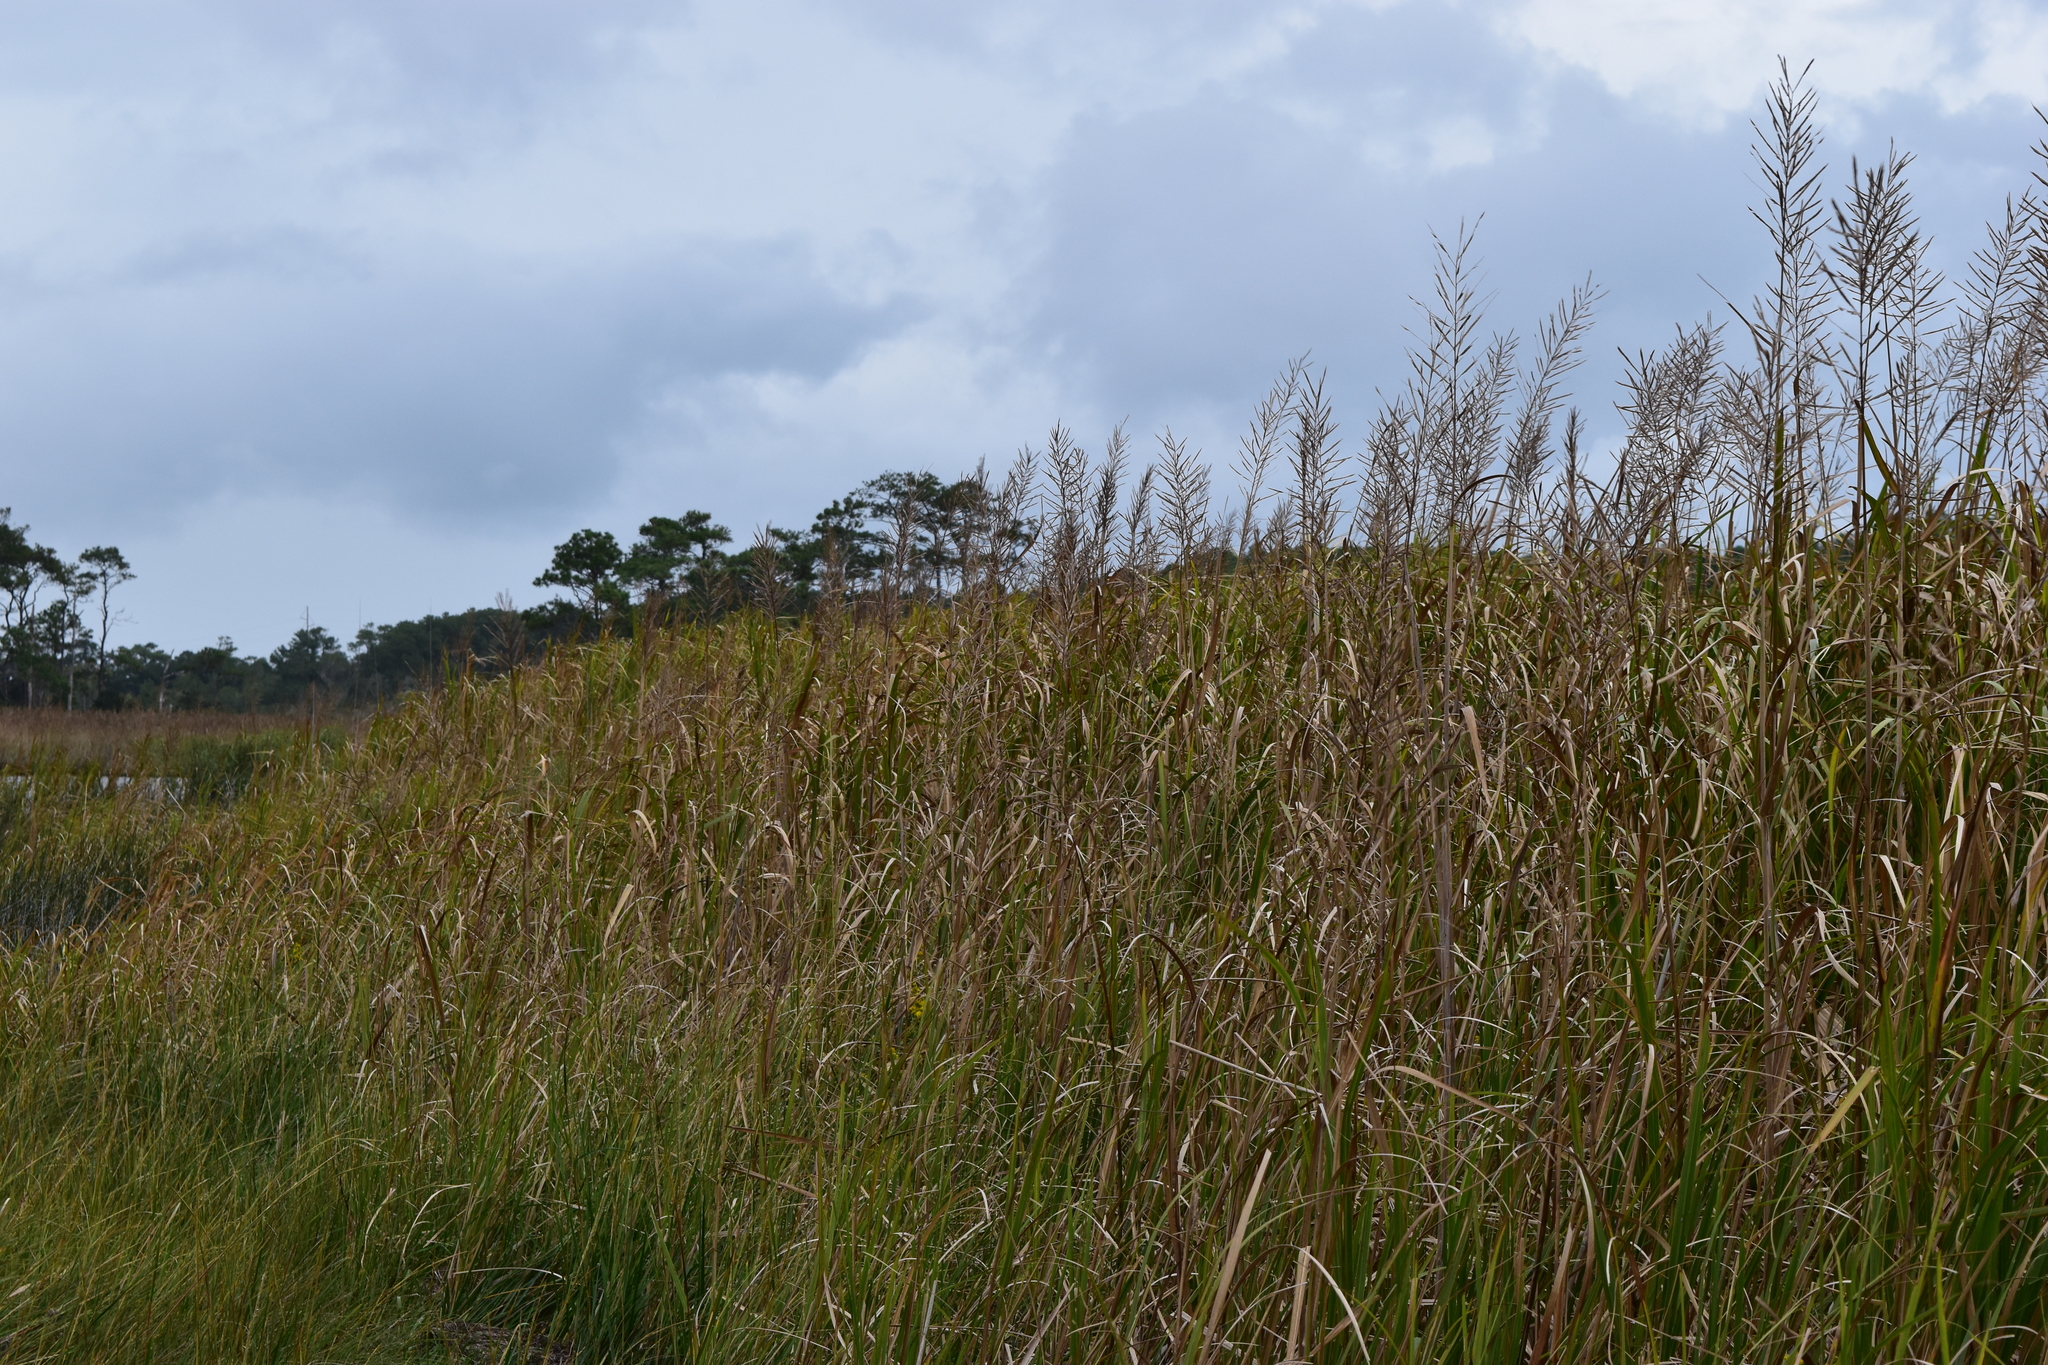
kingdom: Plantae
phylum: Tracheophyta
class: Liliopsida
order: Poales
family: Poaceae
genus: Sporobolus
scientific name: Sporobolus cynosuroides
